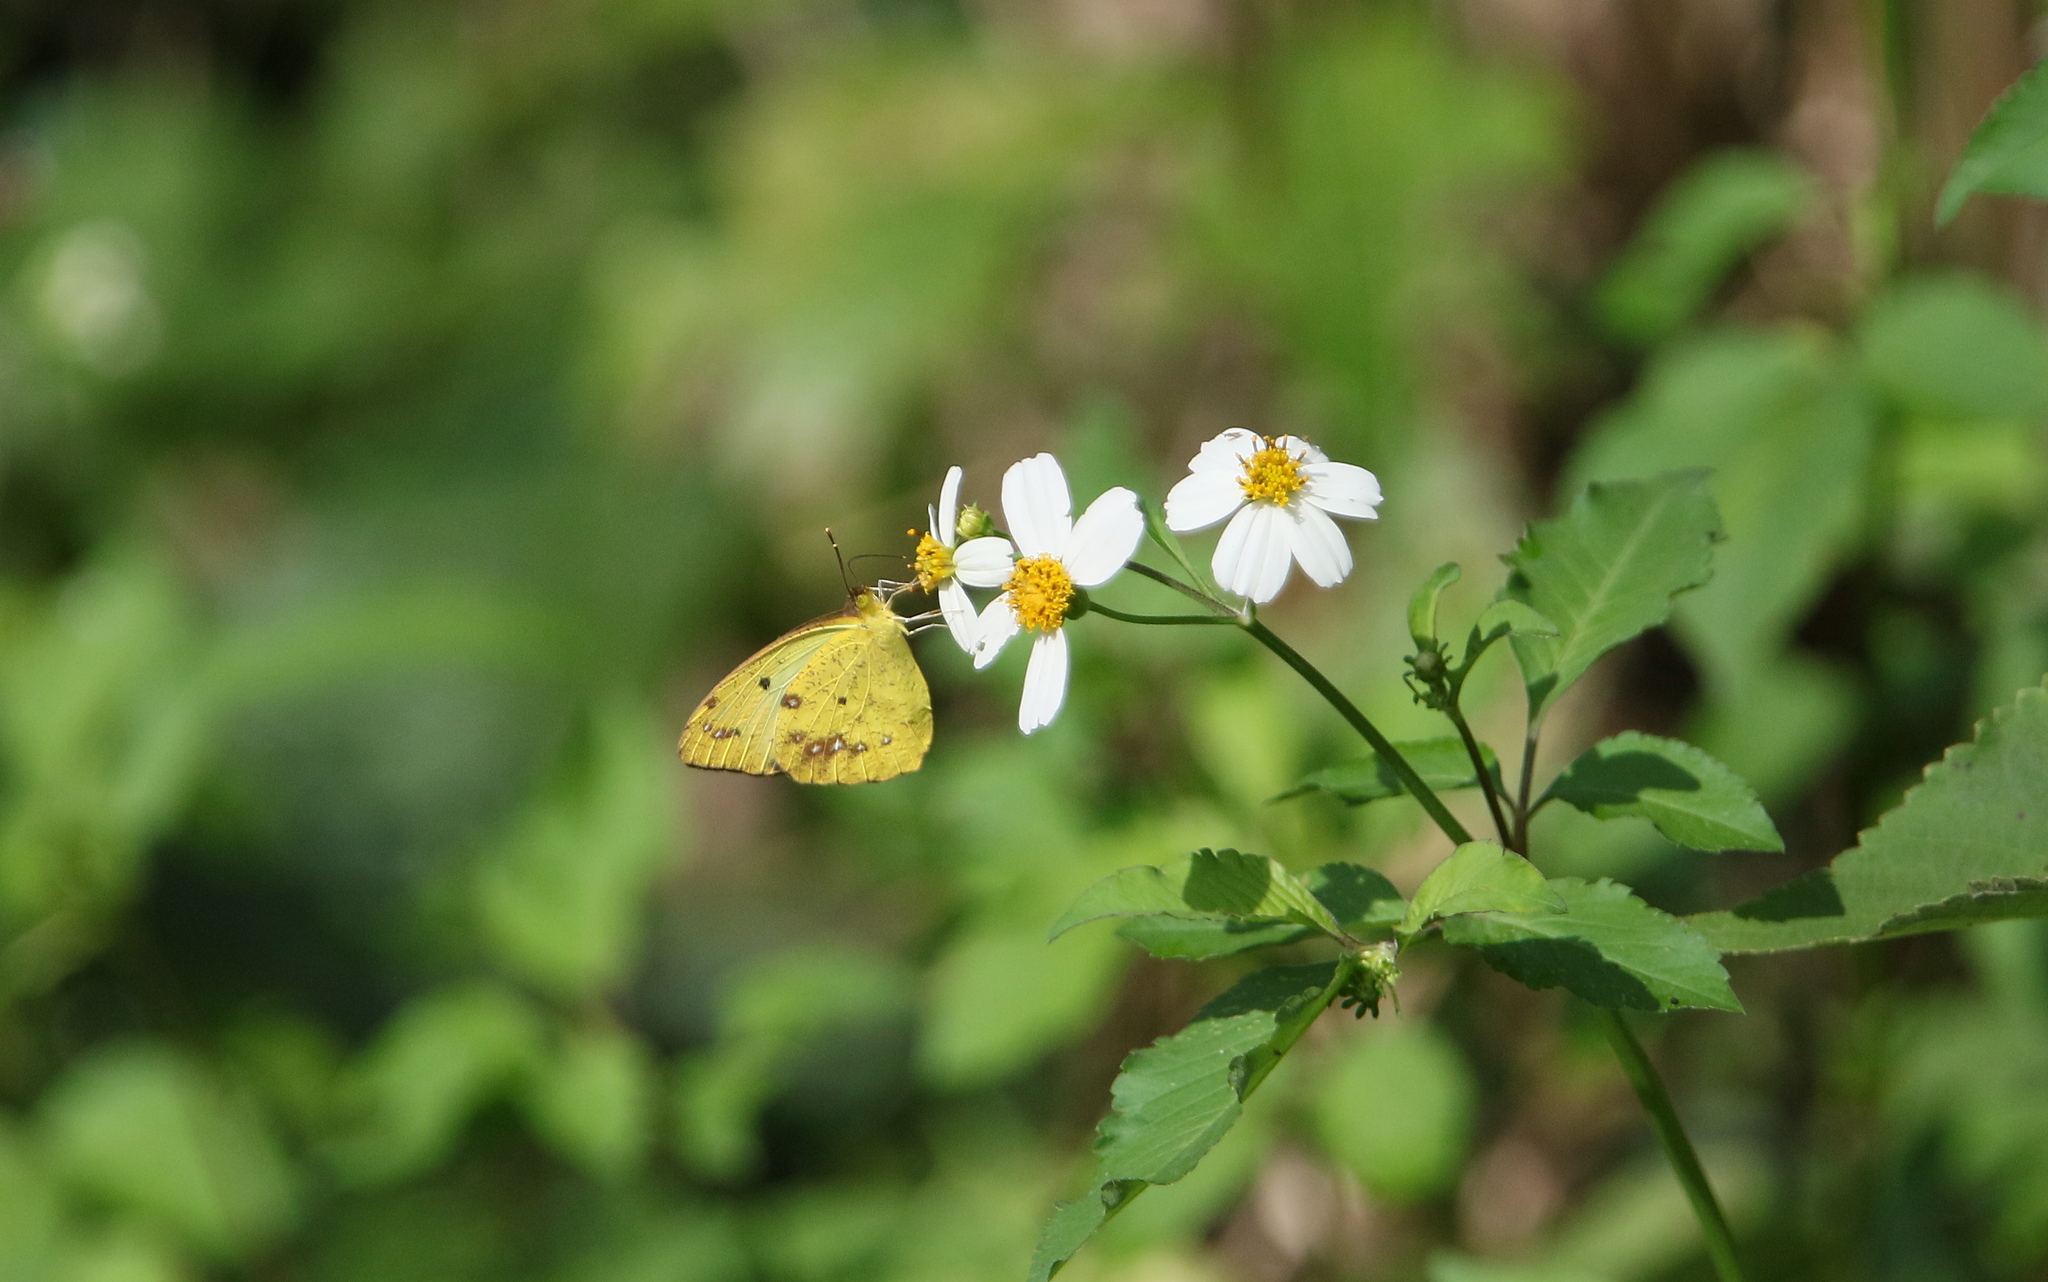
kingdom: Animalia
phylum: Arthropoda
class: Insecta
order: Lepidoptera
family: Pieridae
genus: Ixias
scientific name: Ixias pyrene
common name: Yellow orange tip
